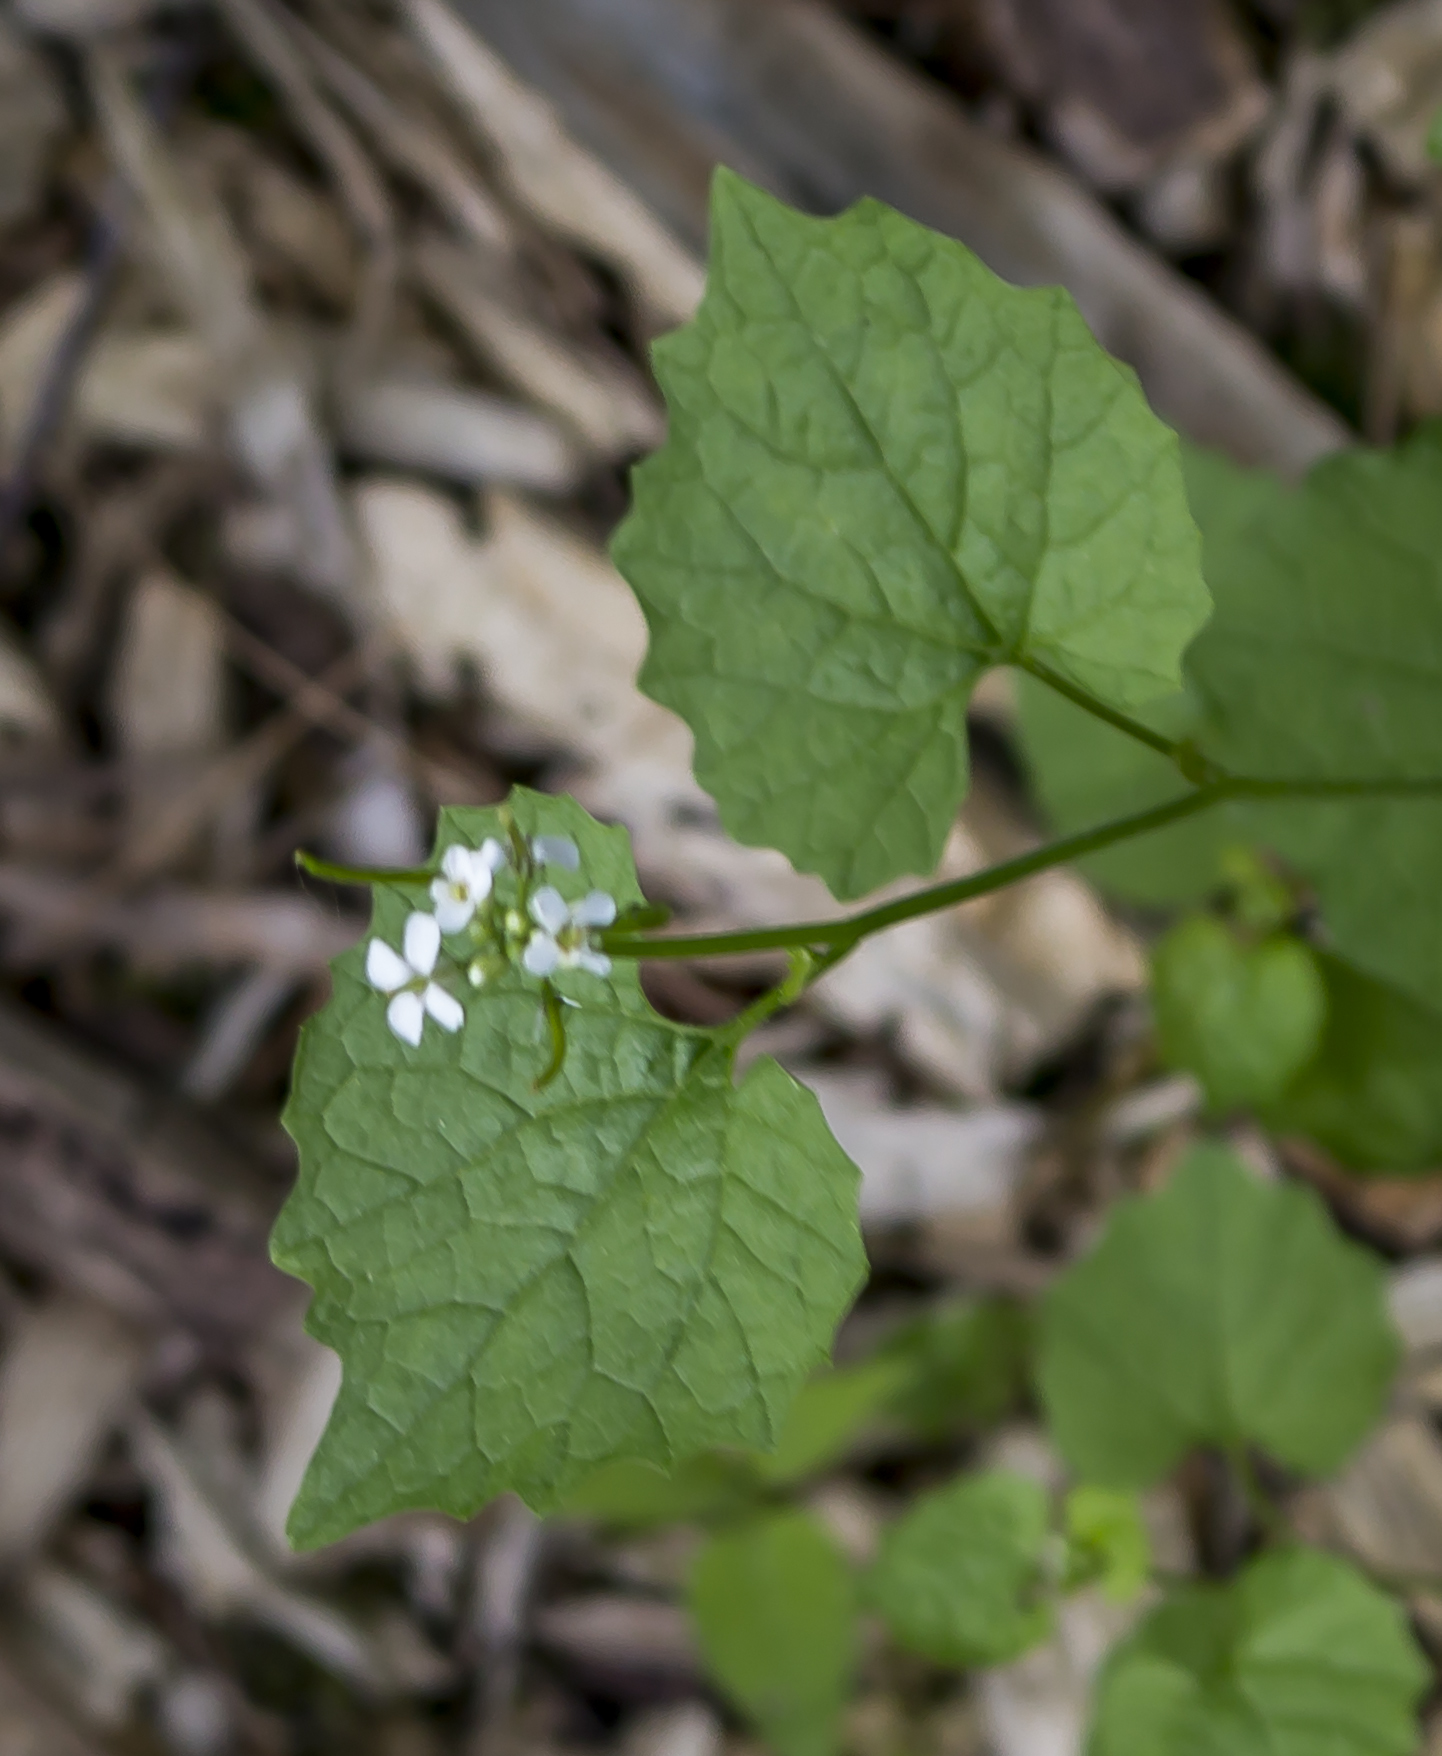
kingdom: Plantae
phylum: Tracheophyta
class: Magnoliopsida
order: Brassicales
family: Brassicaceae
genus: Alliaria
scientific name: Alliaria petiolata
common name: Garlic mustard
